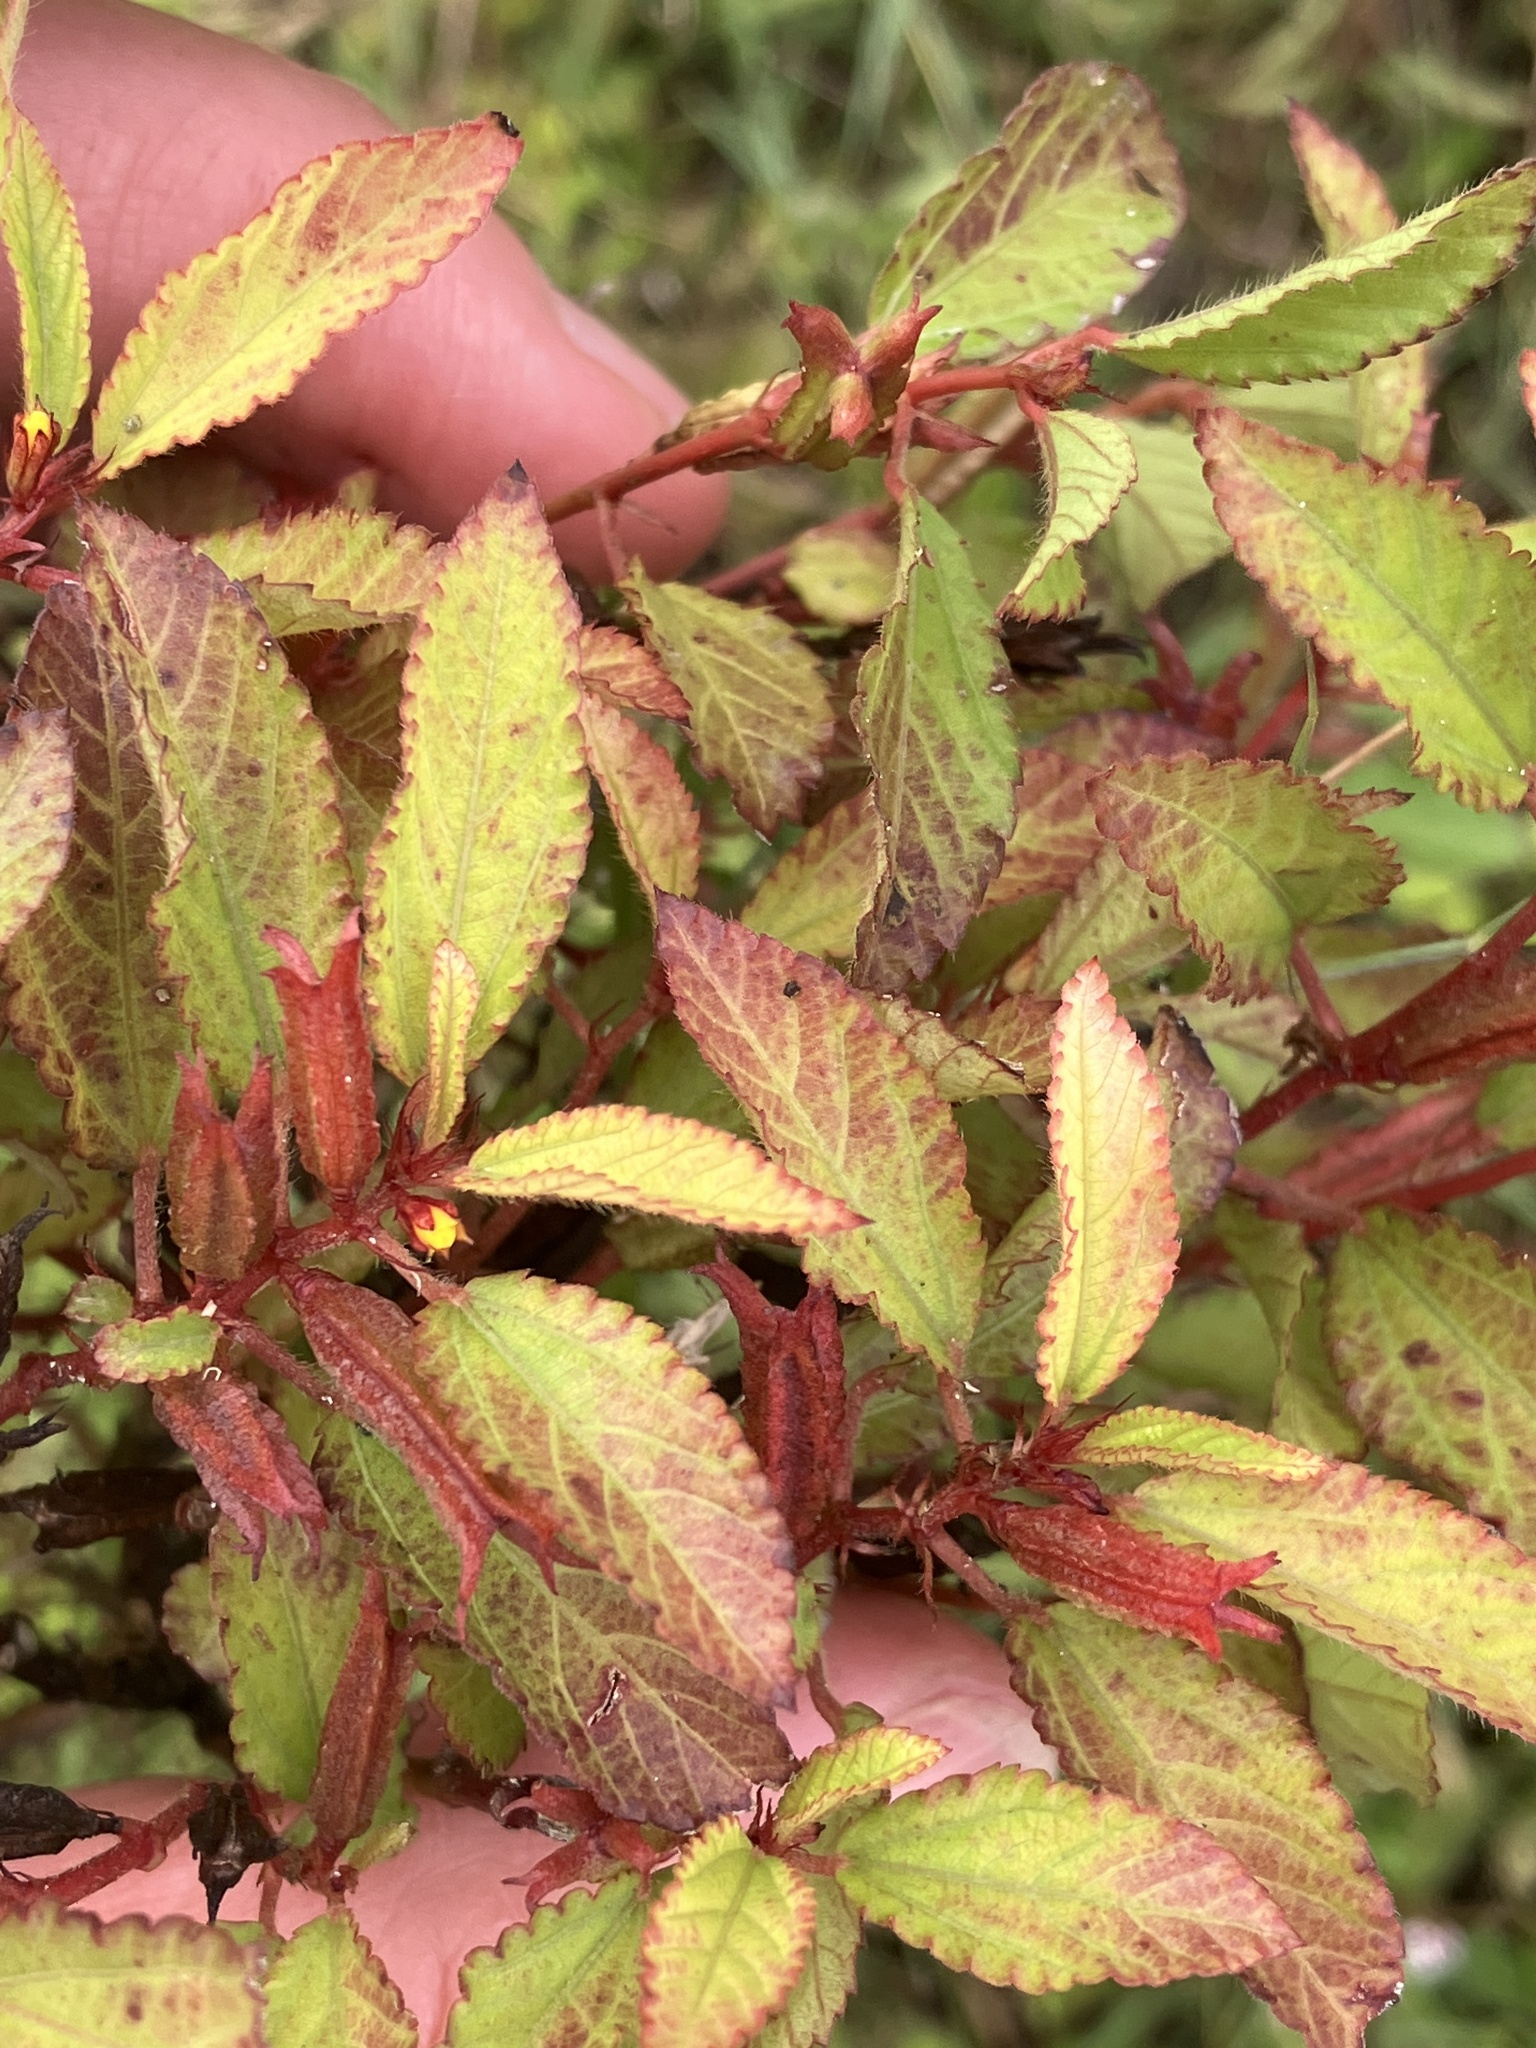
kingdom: Plantae
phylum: Tracheophyta
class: Magnoliopsida
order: Malvales
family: Malvaceae
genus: Corchorus
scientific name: Corchorus aestuans
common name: Jute
